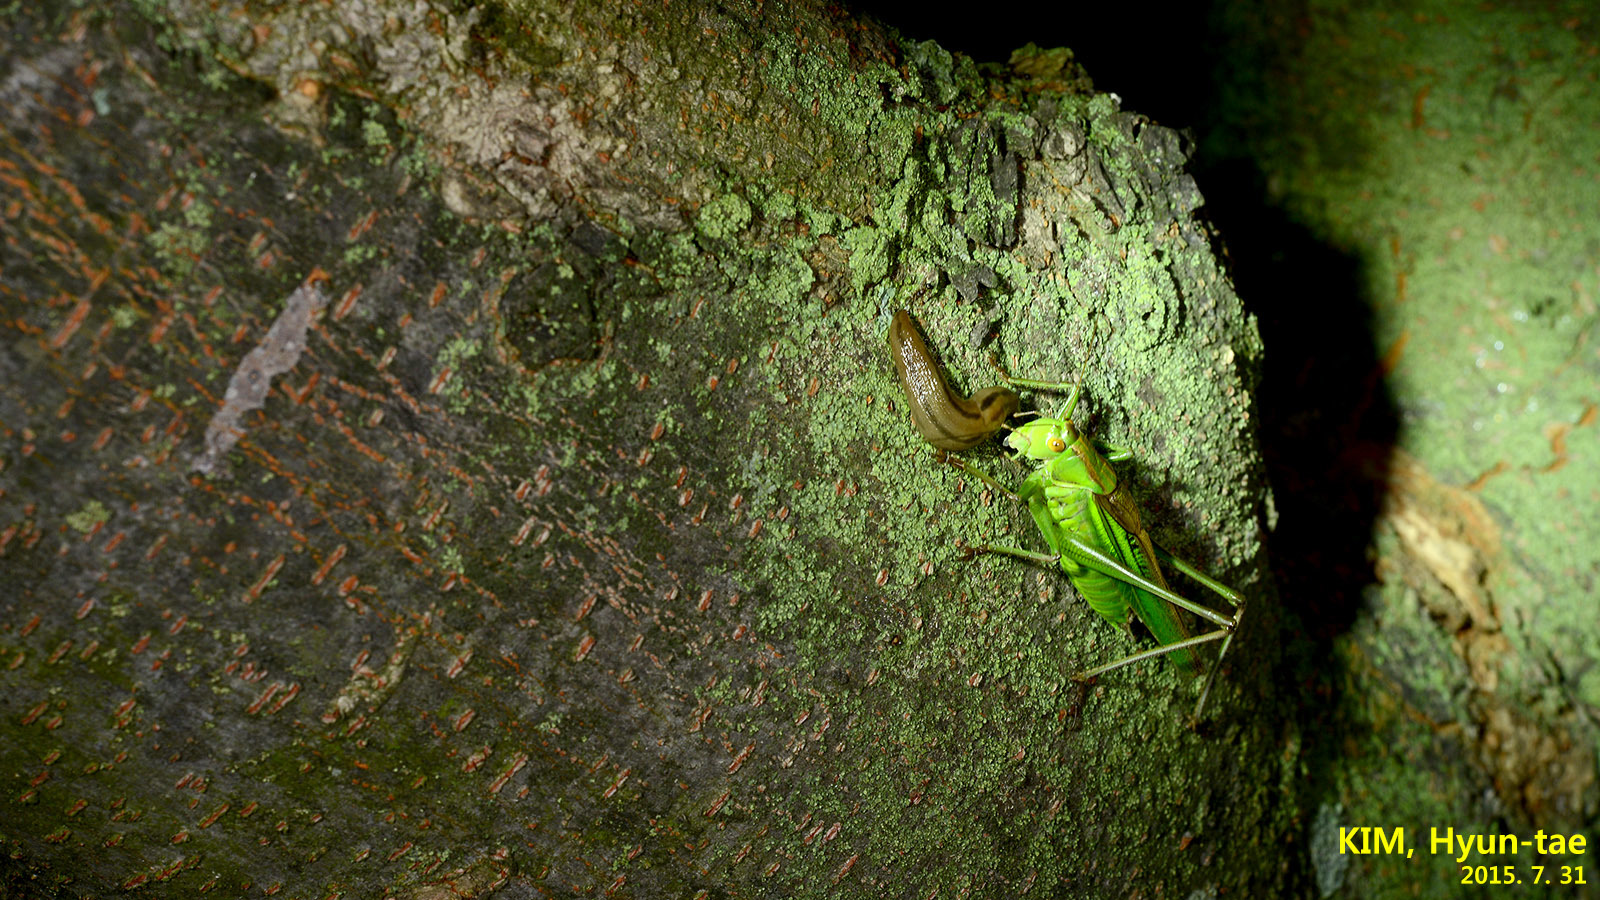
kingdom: Animalia
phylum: Arthropoda
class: Insecta
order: Orthoptera
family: Tettigoniidae
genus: Gampsocleis
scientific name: Gampsocleis ussuriensis
